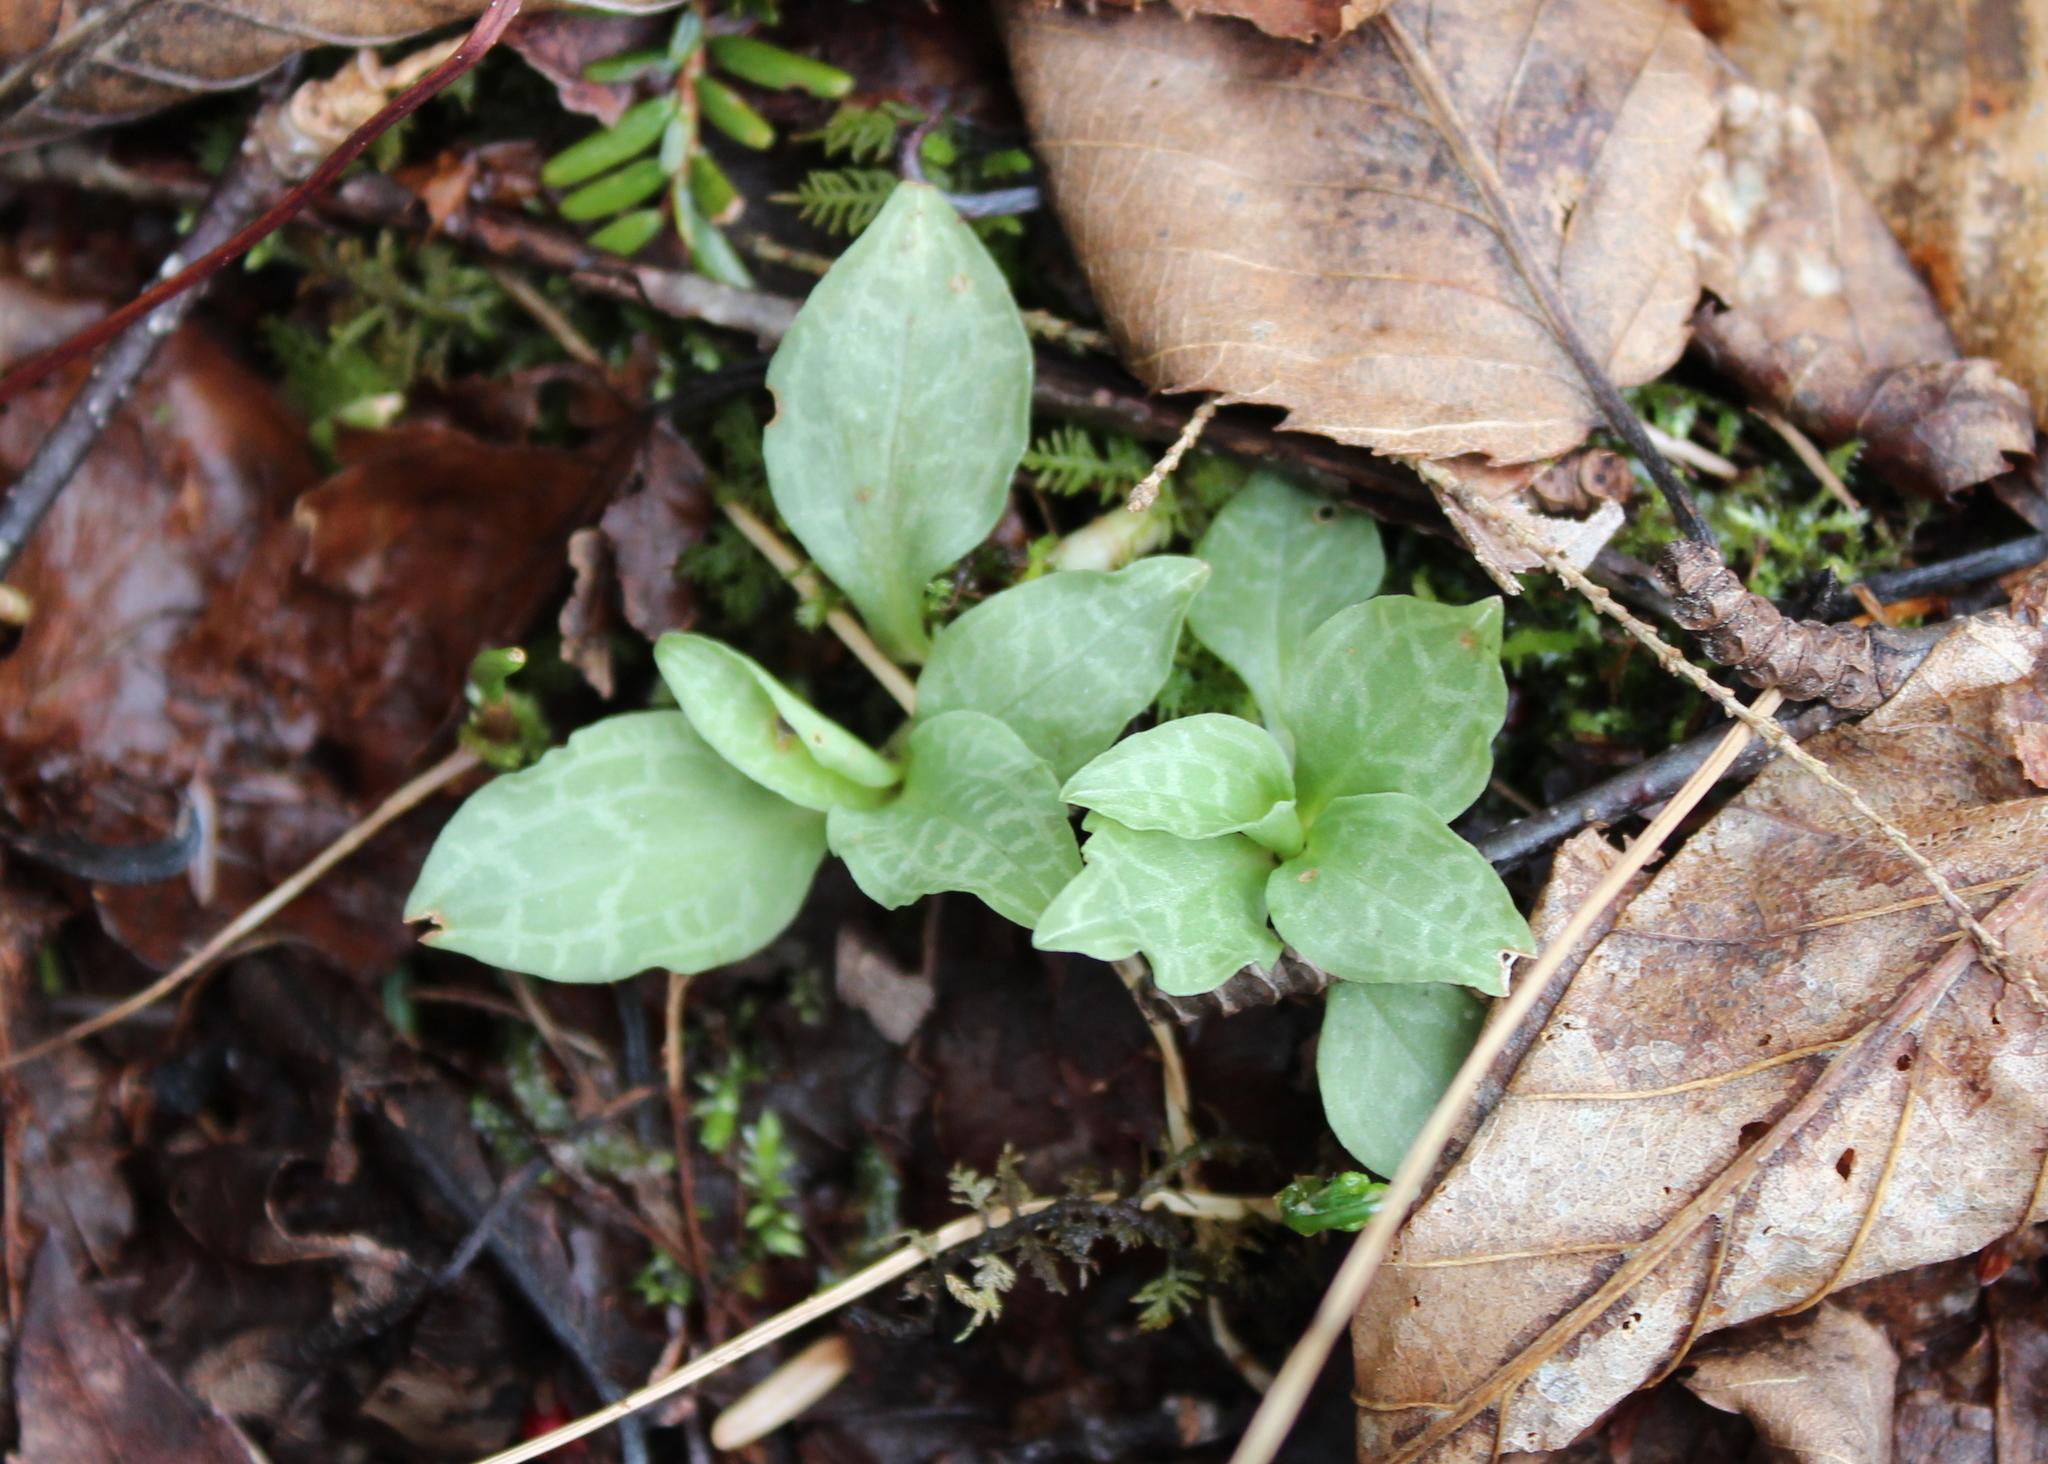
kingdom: Plantae
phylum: Tracheophyta
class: Liliopsida
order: Asparagales
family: Orchidaceae
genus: Goodyera
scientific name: Goodyera tesselata
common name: Checkered rattlesnake-plantain
